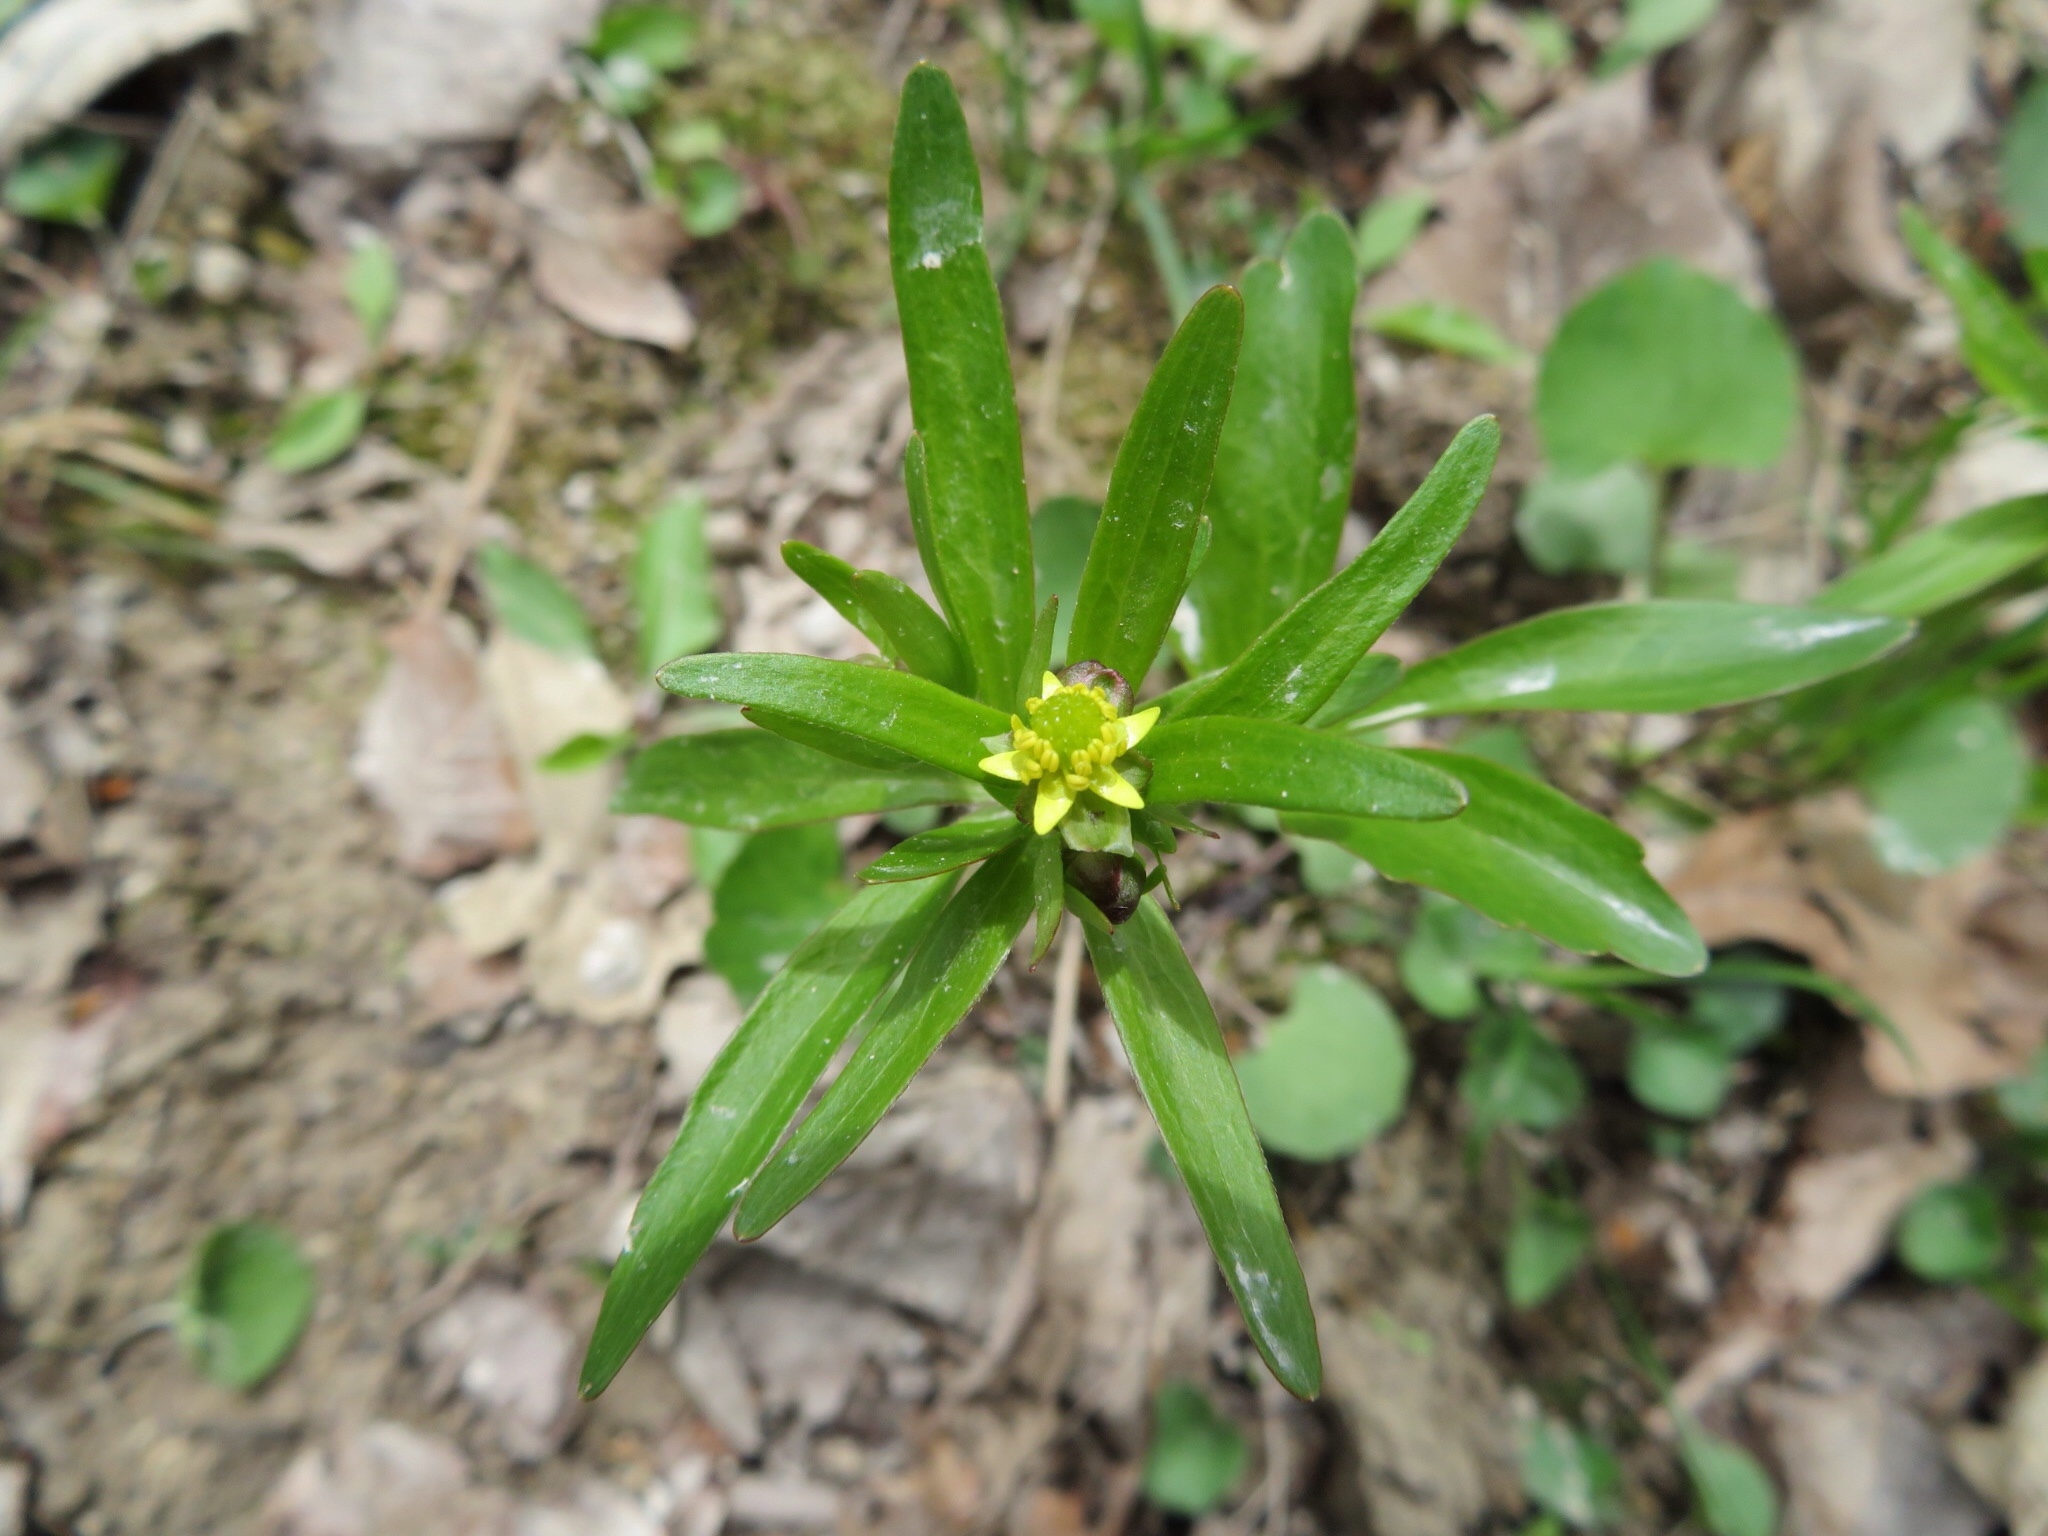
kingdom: Plantae
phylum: Tracheophyta
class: Magnoliopsida
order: Ranunculales
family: Ranunculaceae
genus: Ranunculus
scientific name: Ranunculus abortivus
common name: Early wood buttercup
